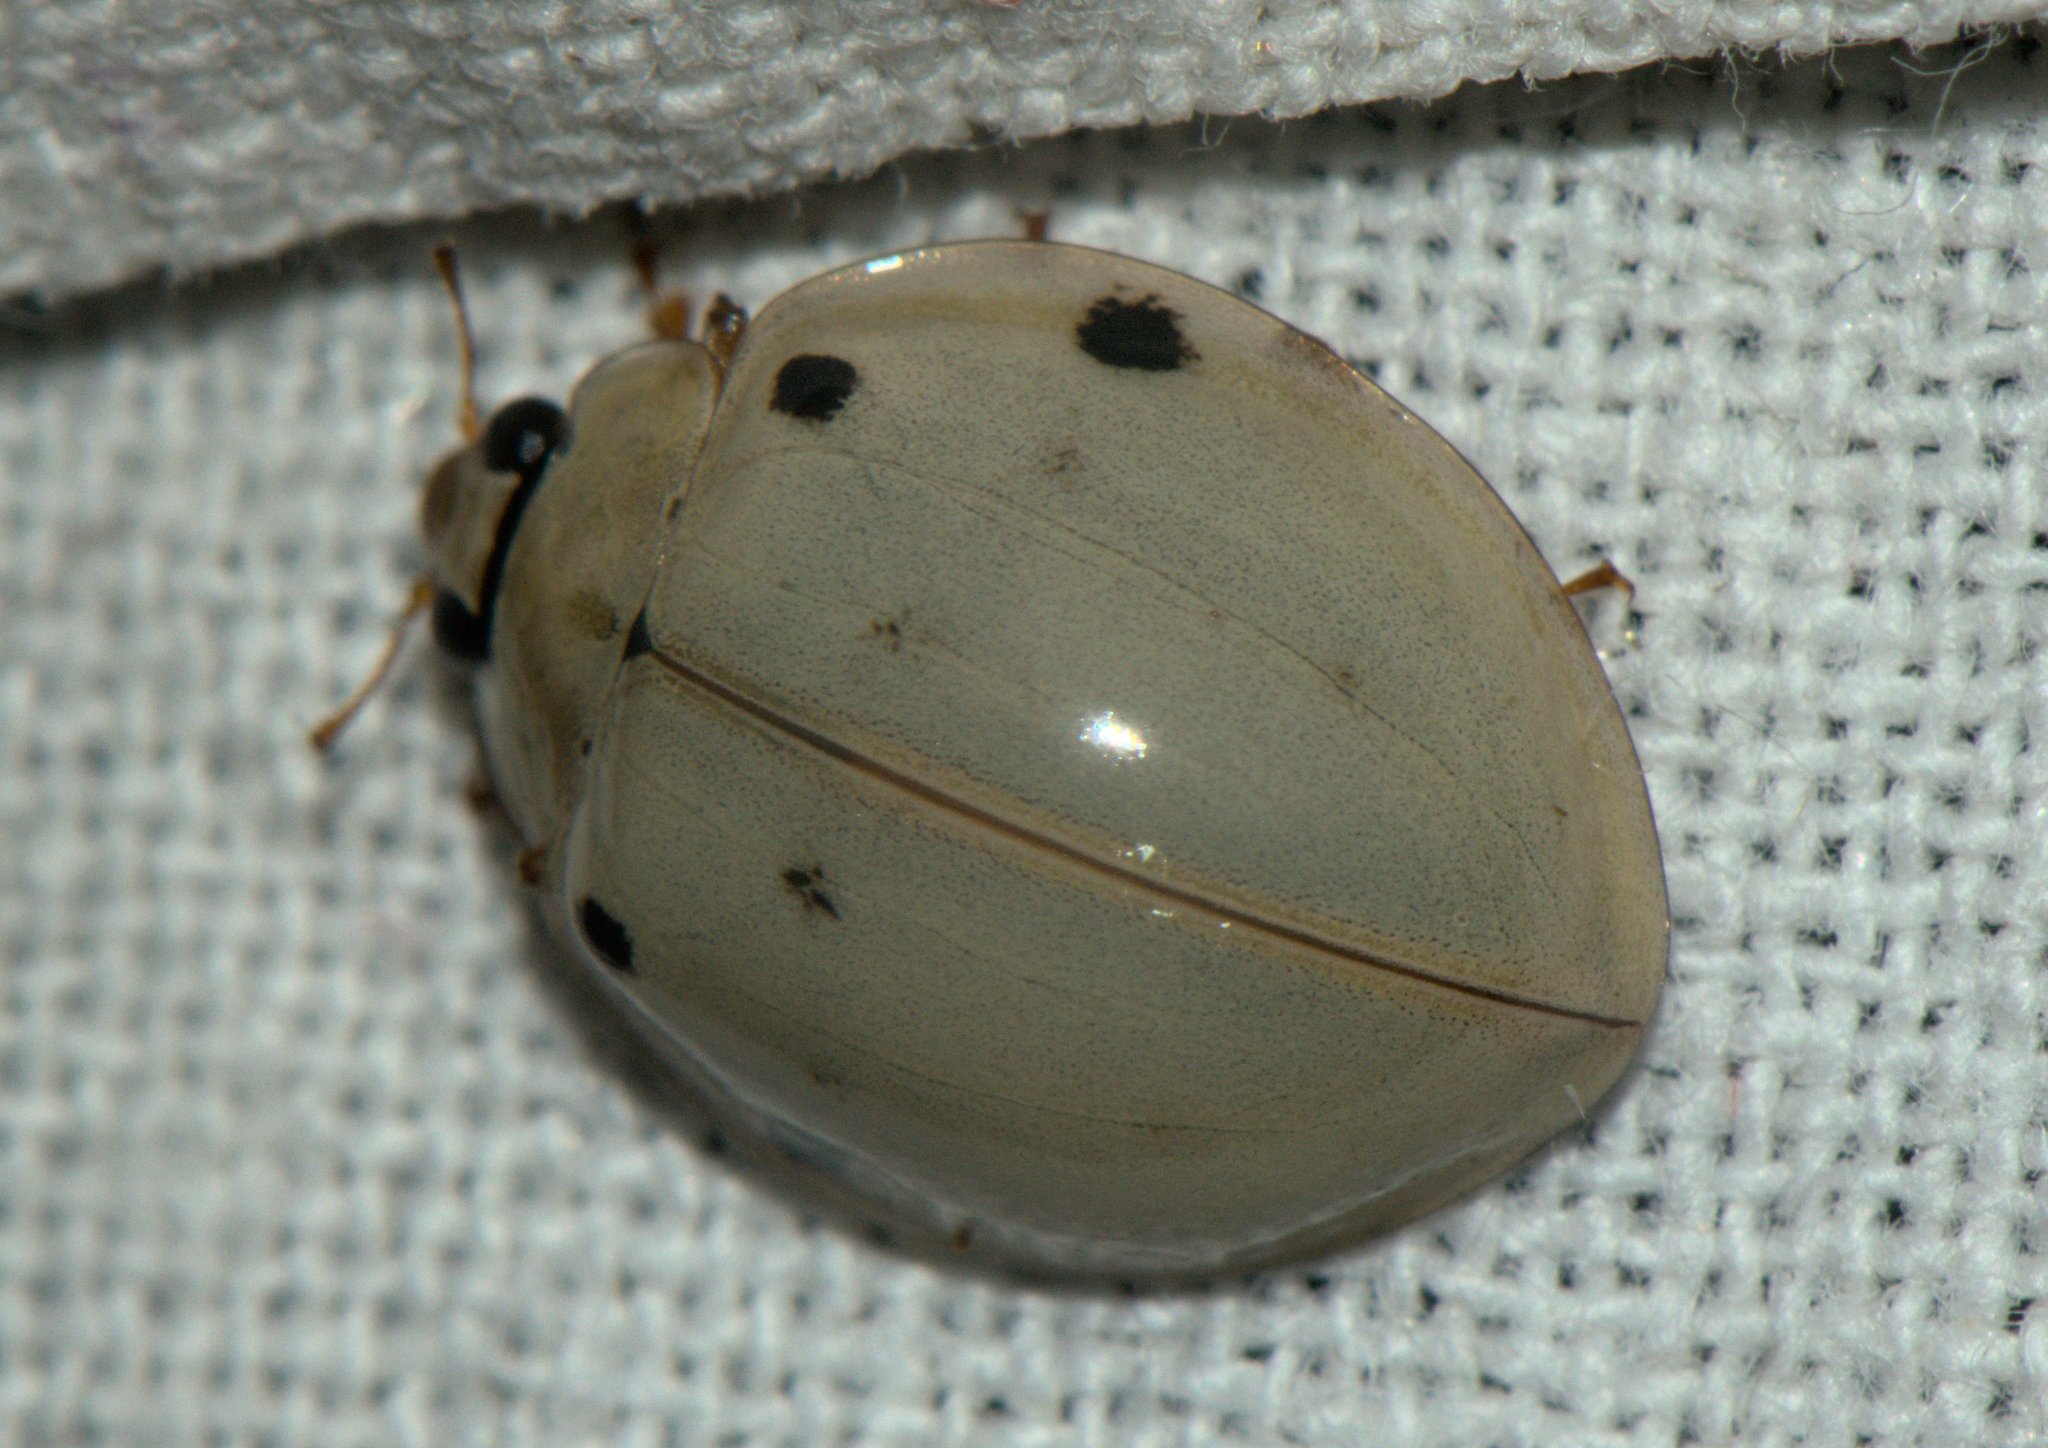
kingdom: Animalia
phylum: Arthropoda
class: Insecta
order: Coleoptera
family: Coccinellidae
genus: Harmonia
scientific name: Harmonia eucharis
